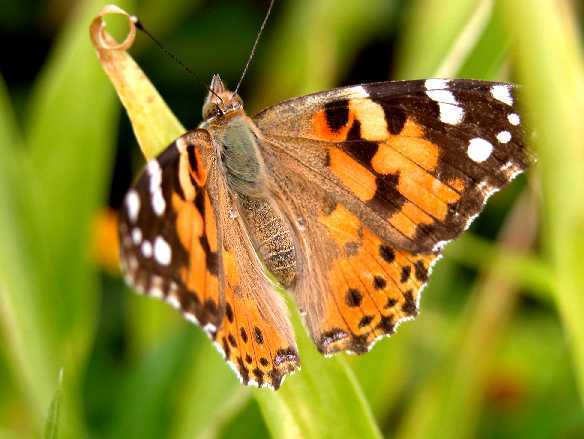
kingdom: Animalia
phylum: Arthropoda
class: Insecta
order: Lepidoptera
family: Nymphalidae
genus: Vanessa
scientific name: Vanessa cardui
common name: Painted lady
